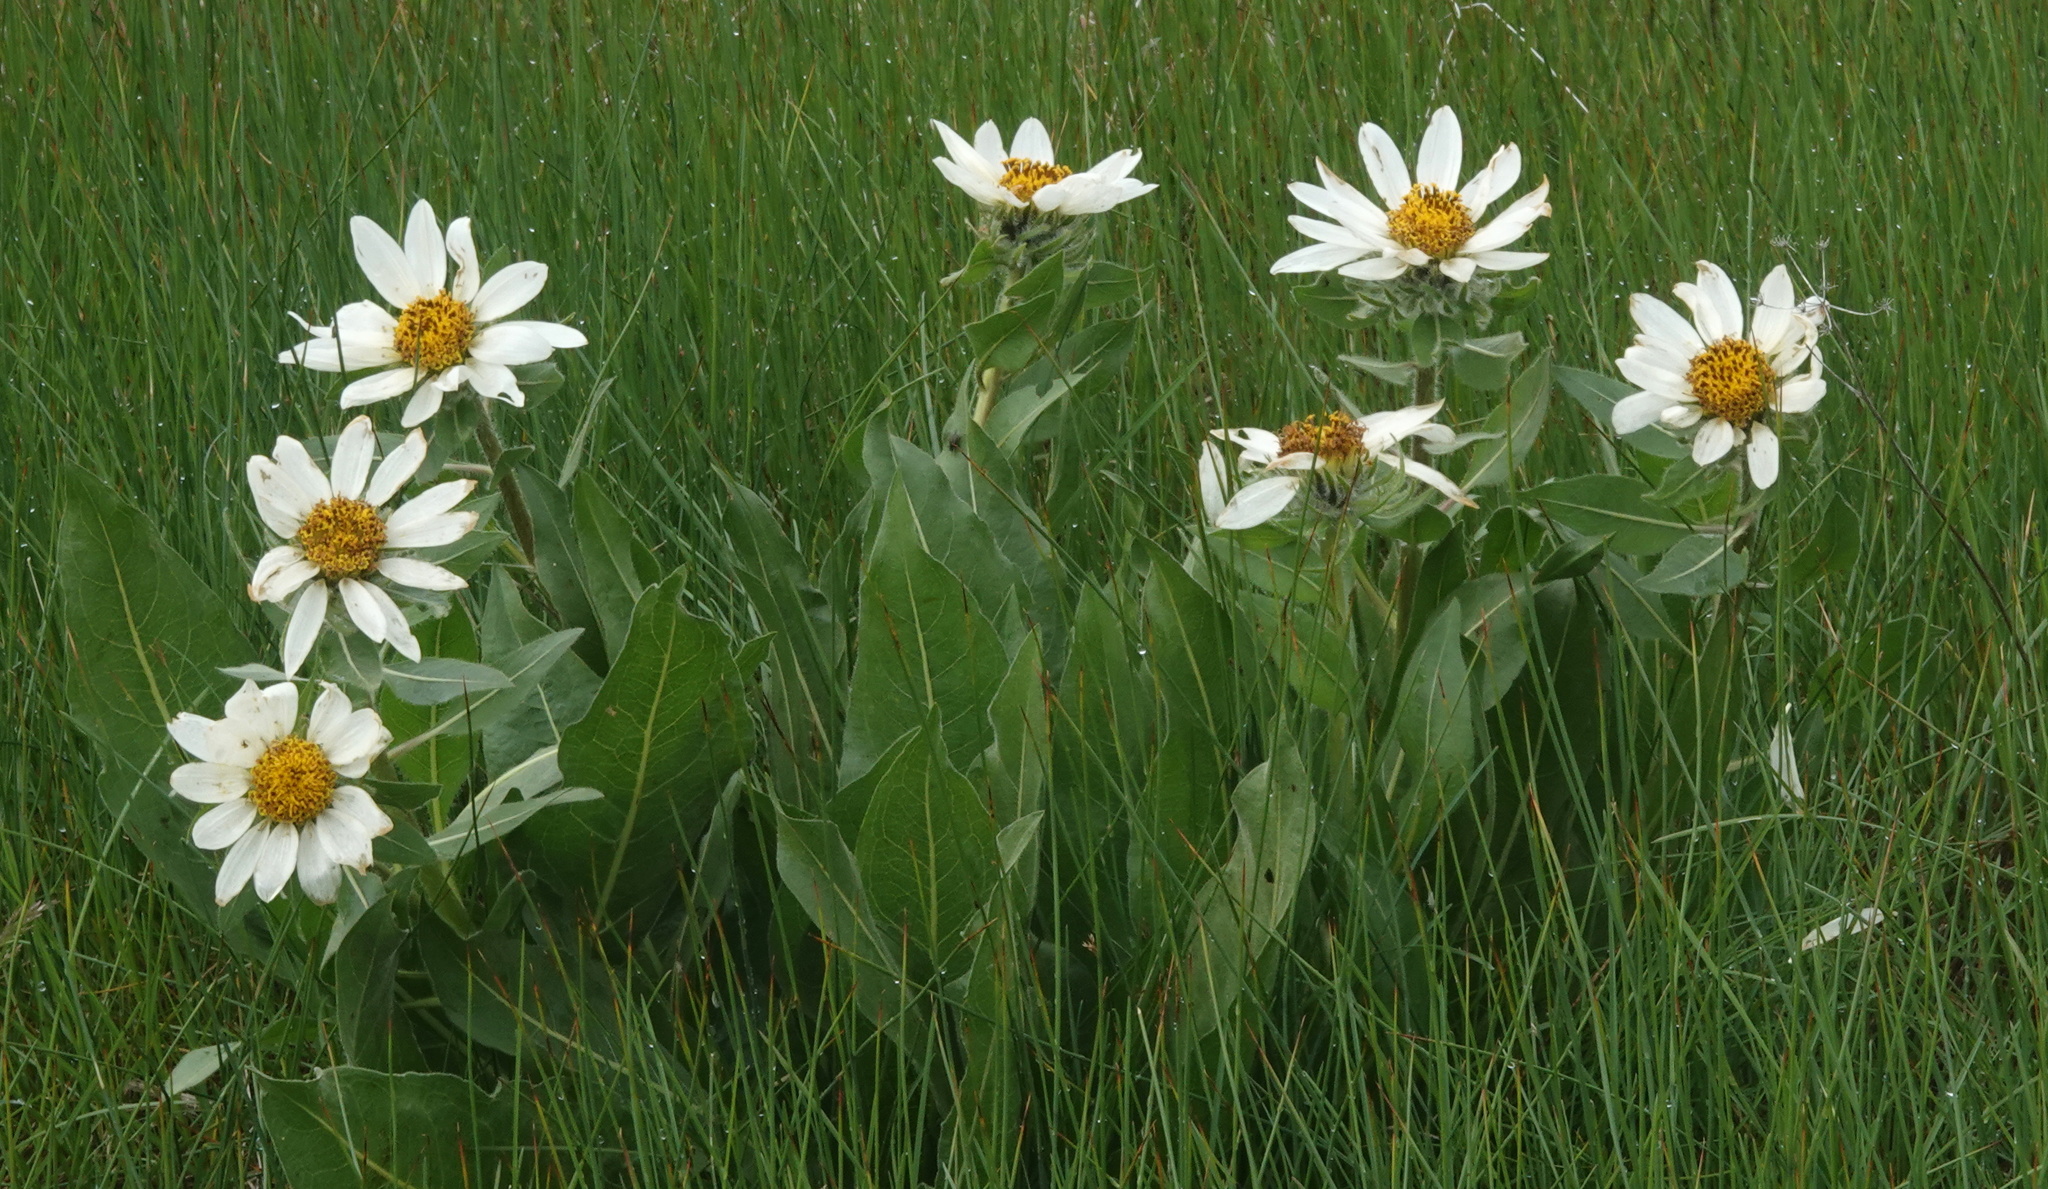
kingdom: Plantae
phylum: Tracheophyta
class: Magnoliopsida
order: Asterales
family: Asteraceae
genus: Wyethia
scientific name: Wyethia helianthoides
